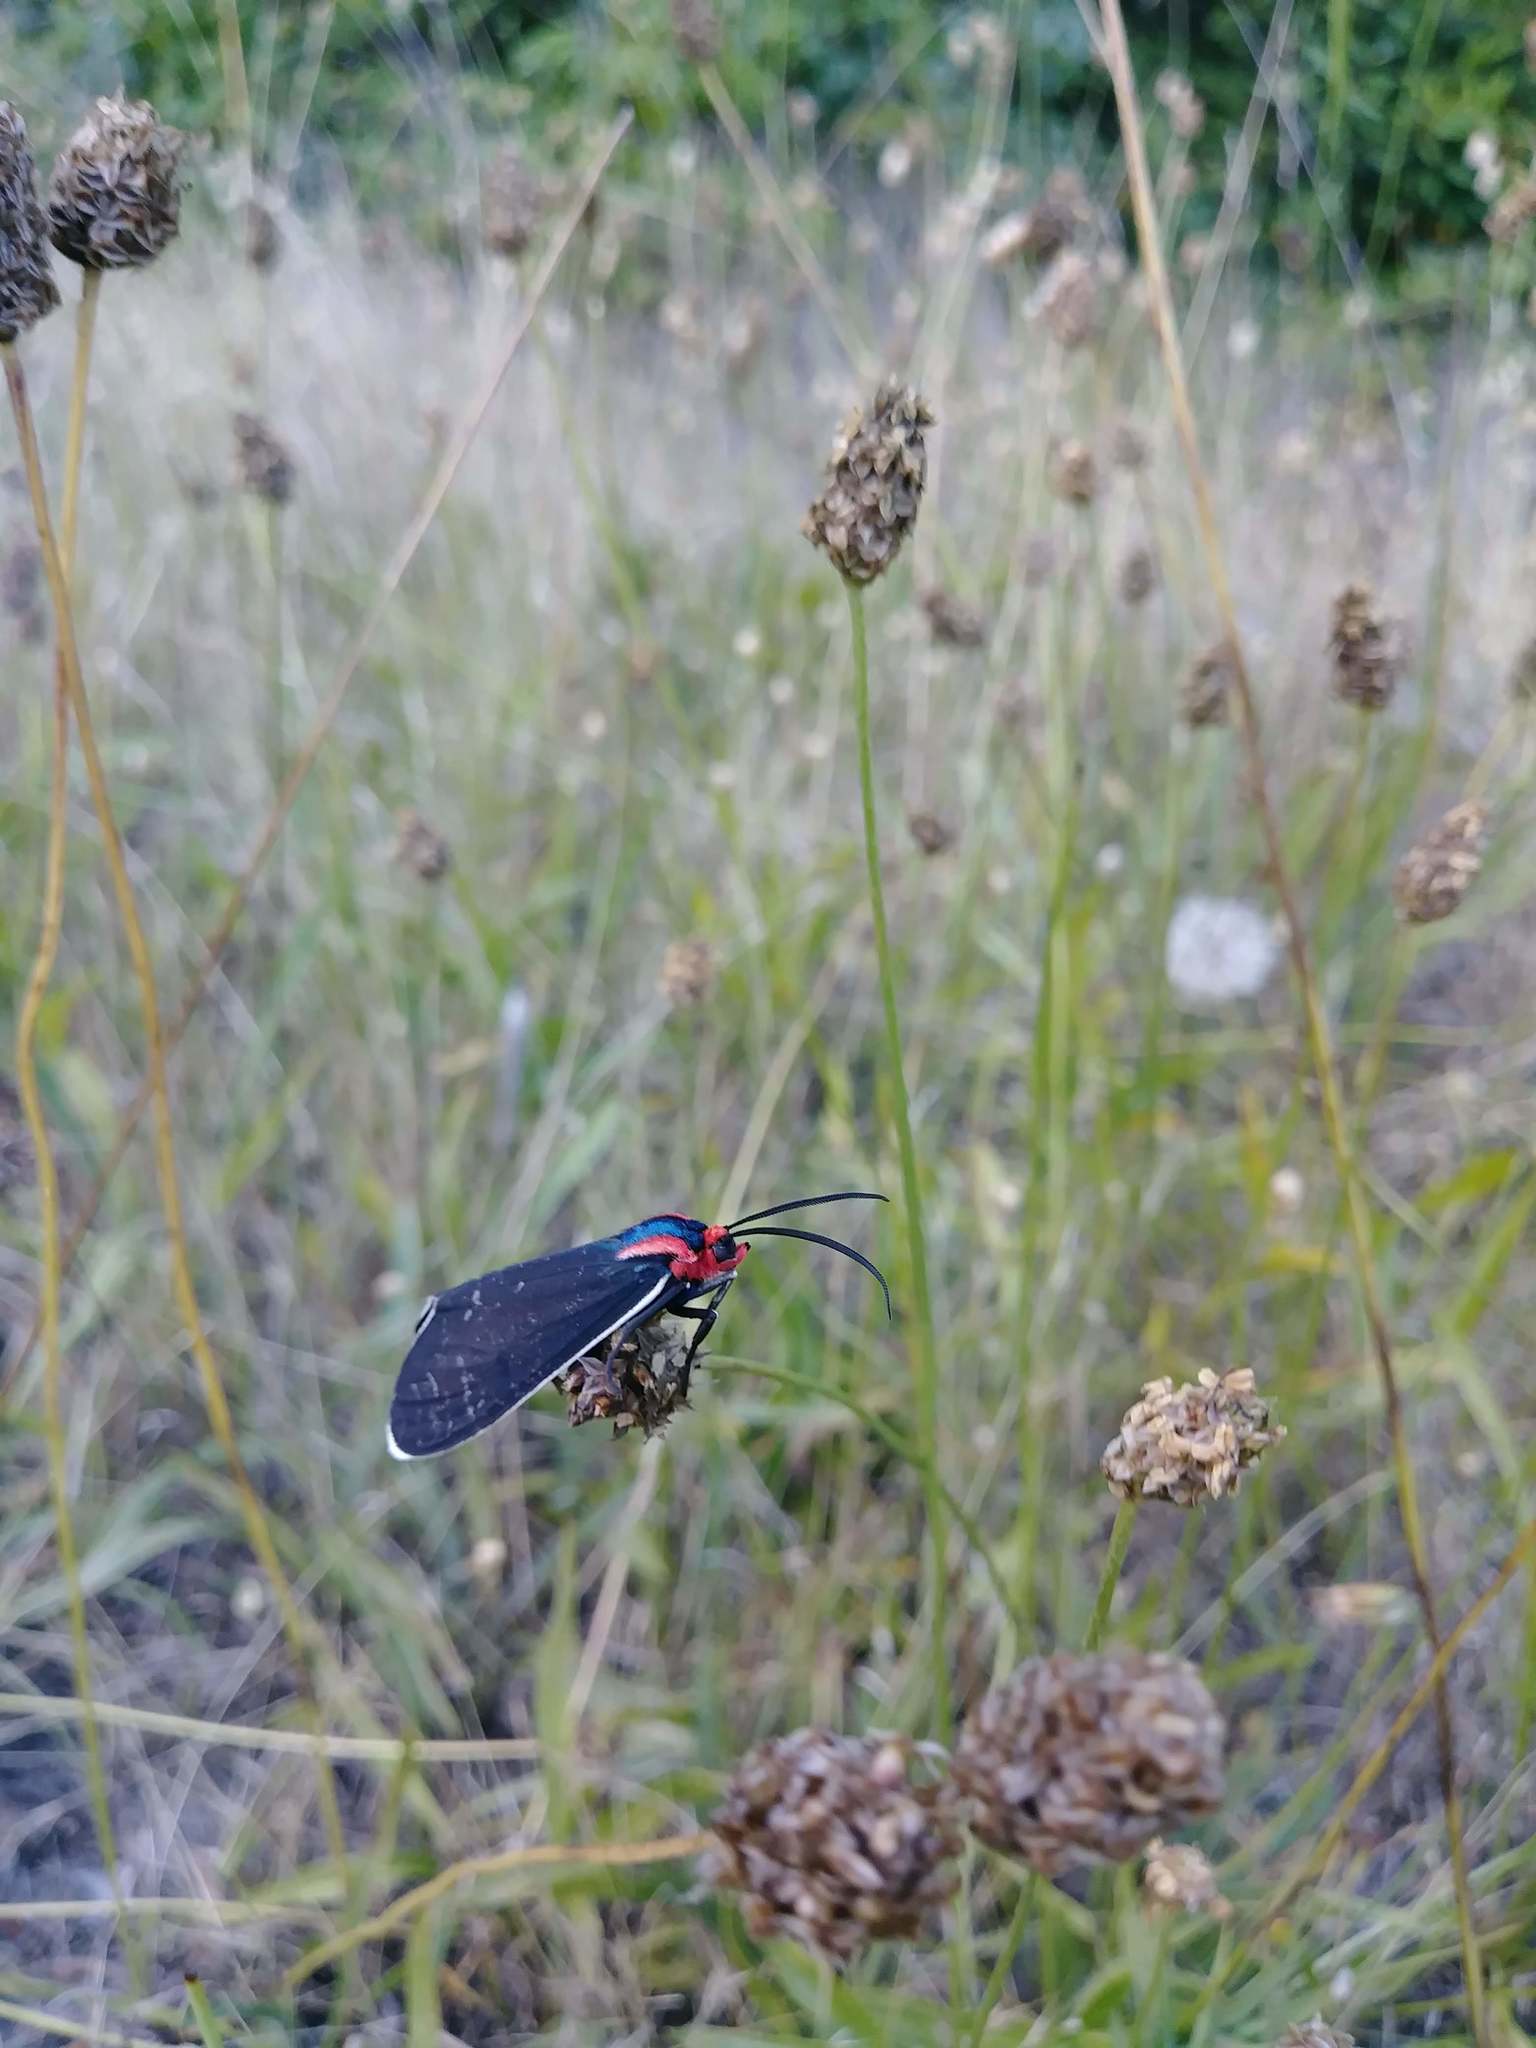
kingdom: Animalia
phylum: Arthropoda
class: Insecta
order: Lepidoptera
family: Erebidae
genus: Ctenucha
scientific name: Ctenucha multifaria
